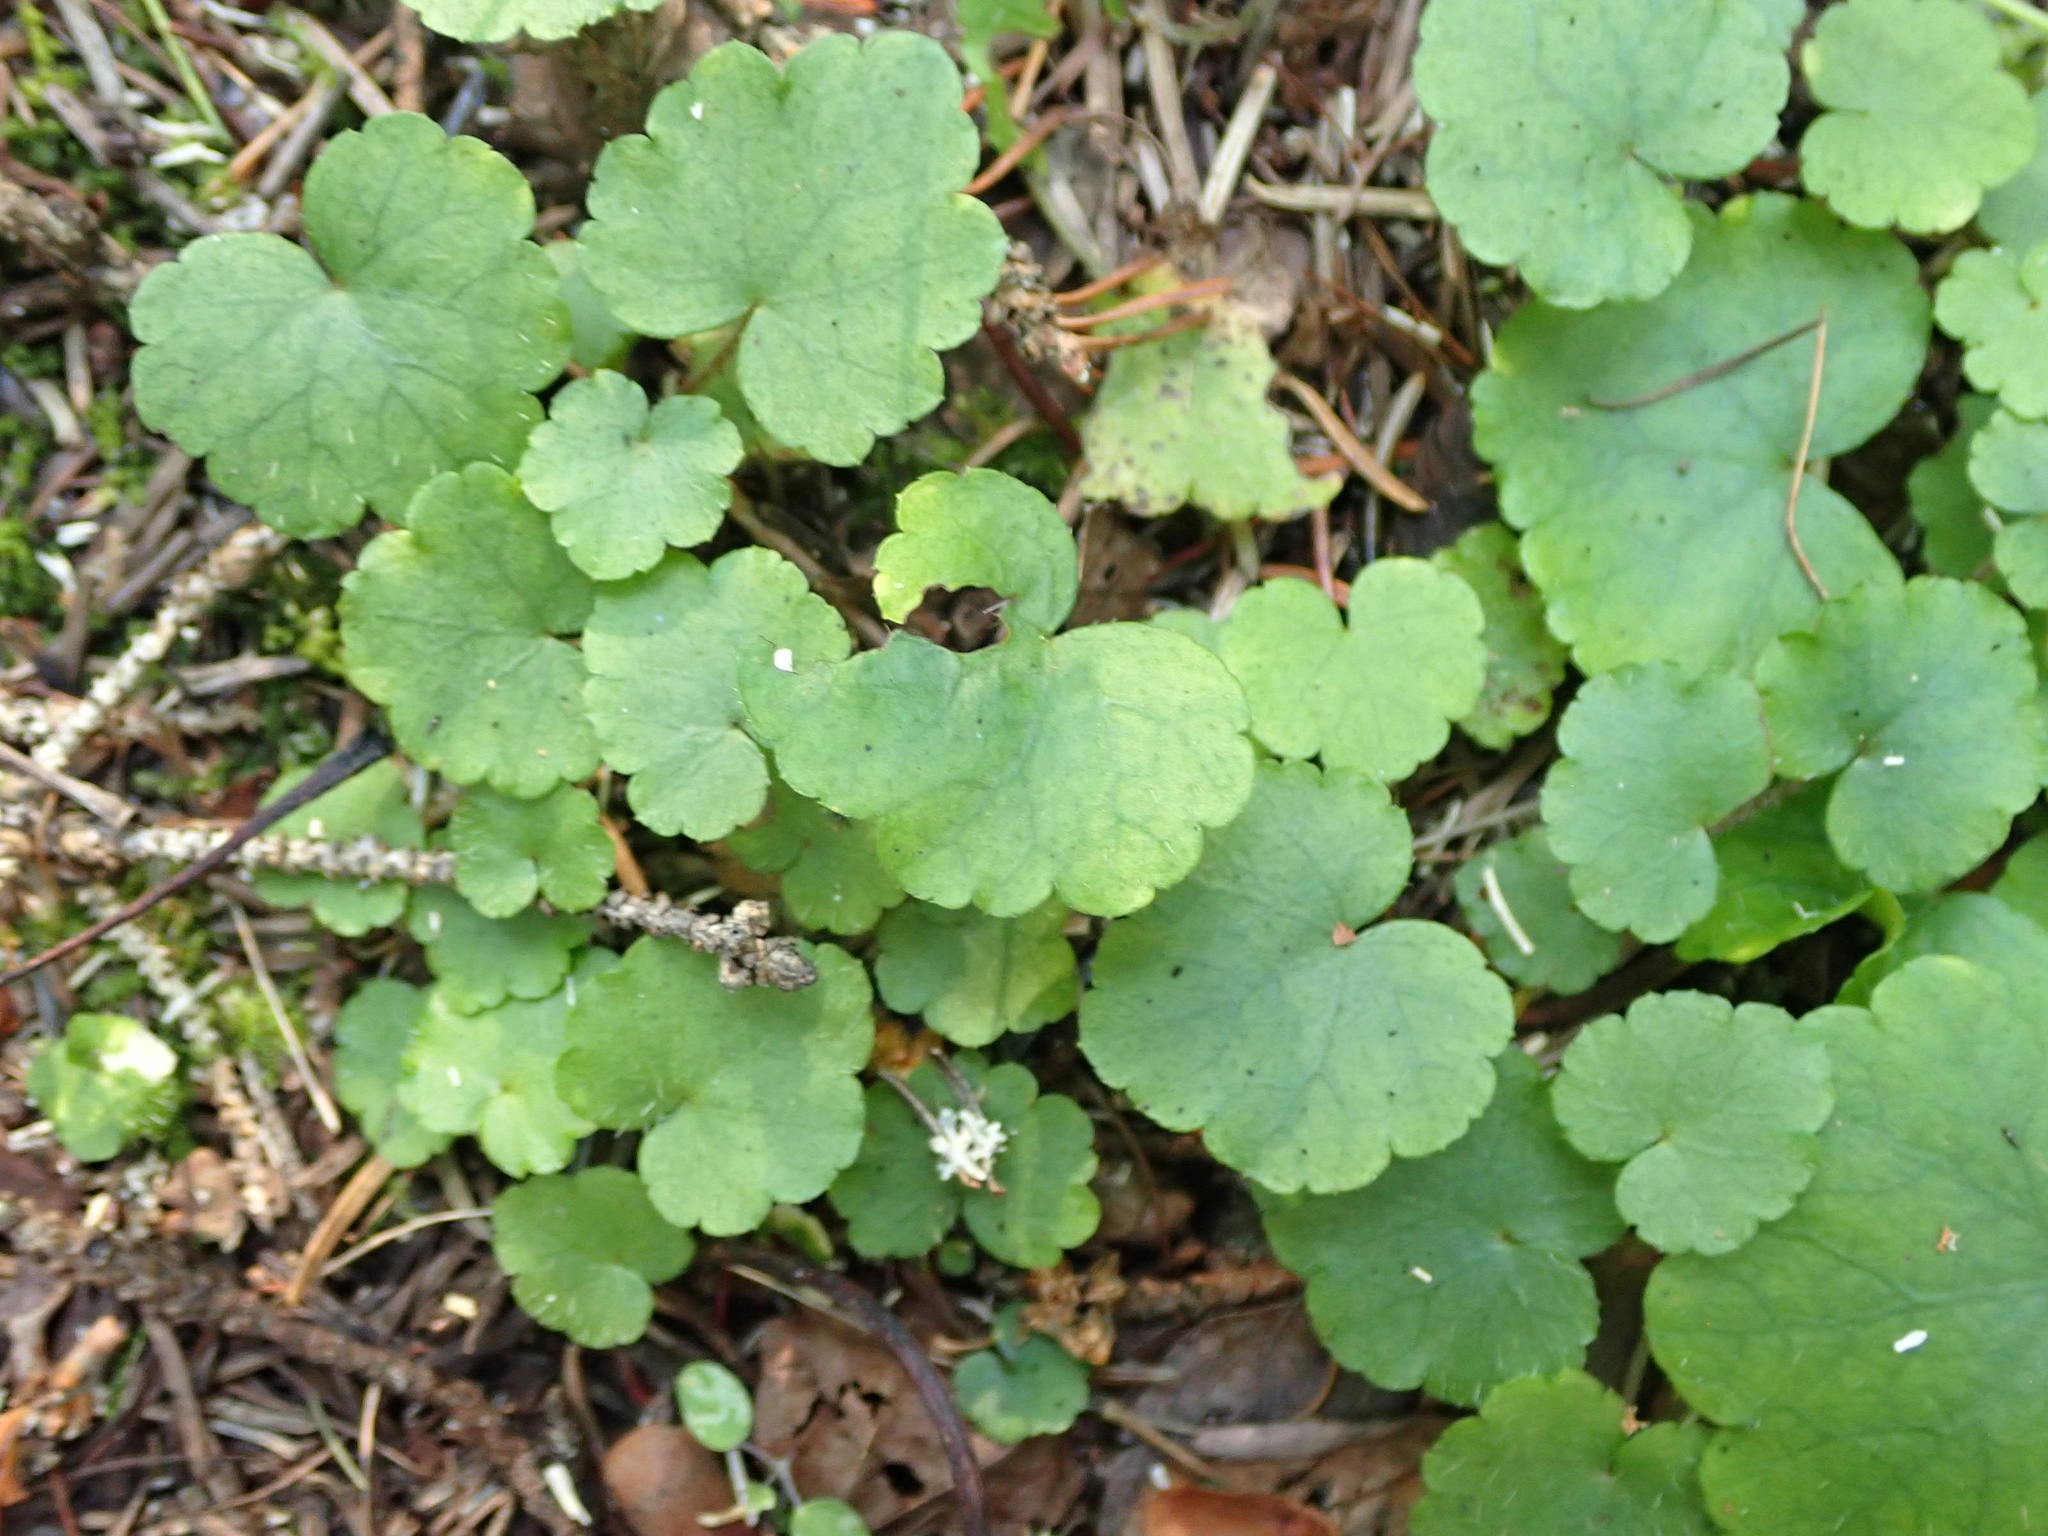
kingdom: Plantae
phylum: Tracheophyta
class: Magnoliopsida
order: Saxifragales
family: Saxifragaceae
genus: Mitella
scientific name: Mitella nuda
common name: Bare-stemmed bishop's-cap
